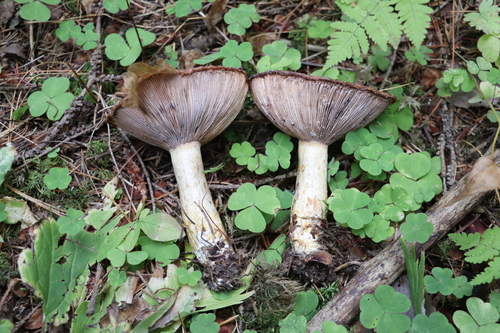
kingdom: Fungi
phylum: Basidiomycota
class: Agaricomycetes
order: Russulales
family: Russulaceae
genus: Lactarius
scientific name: Lactarius repraesentaneus
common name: Yellow bearded milkcap
